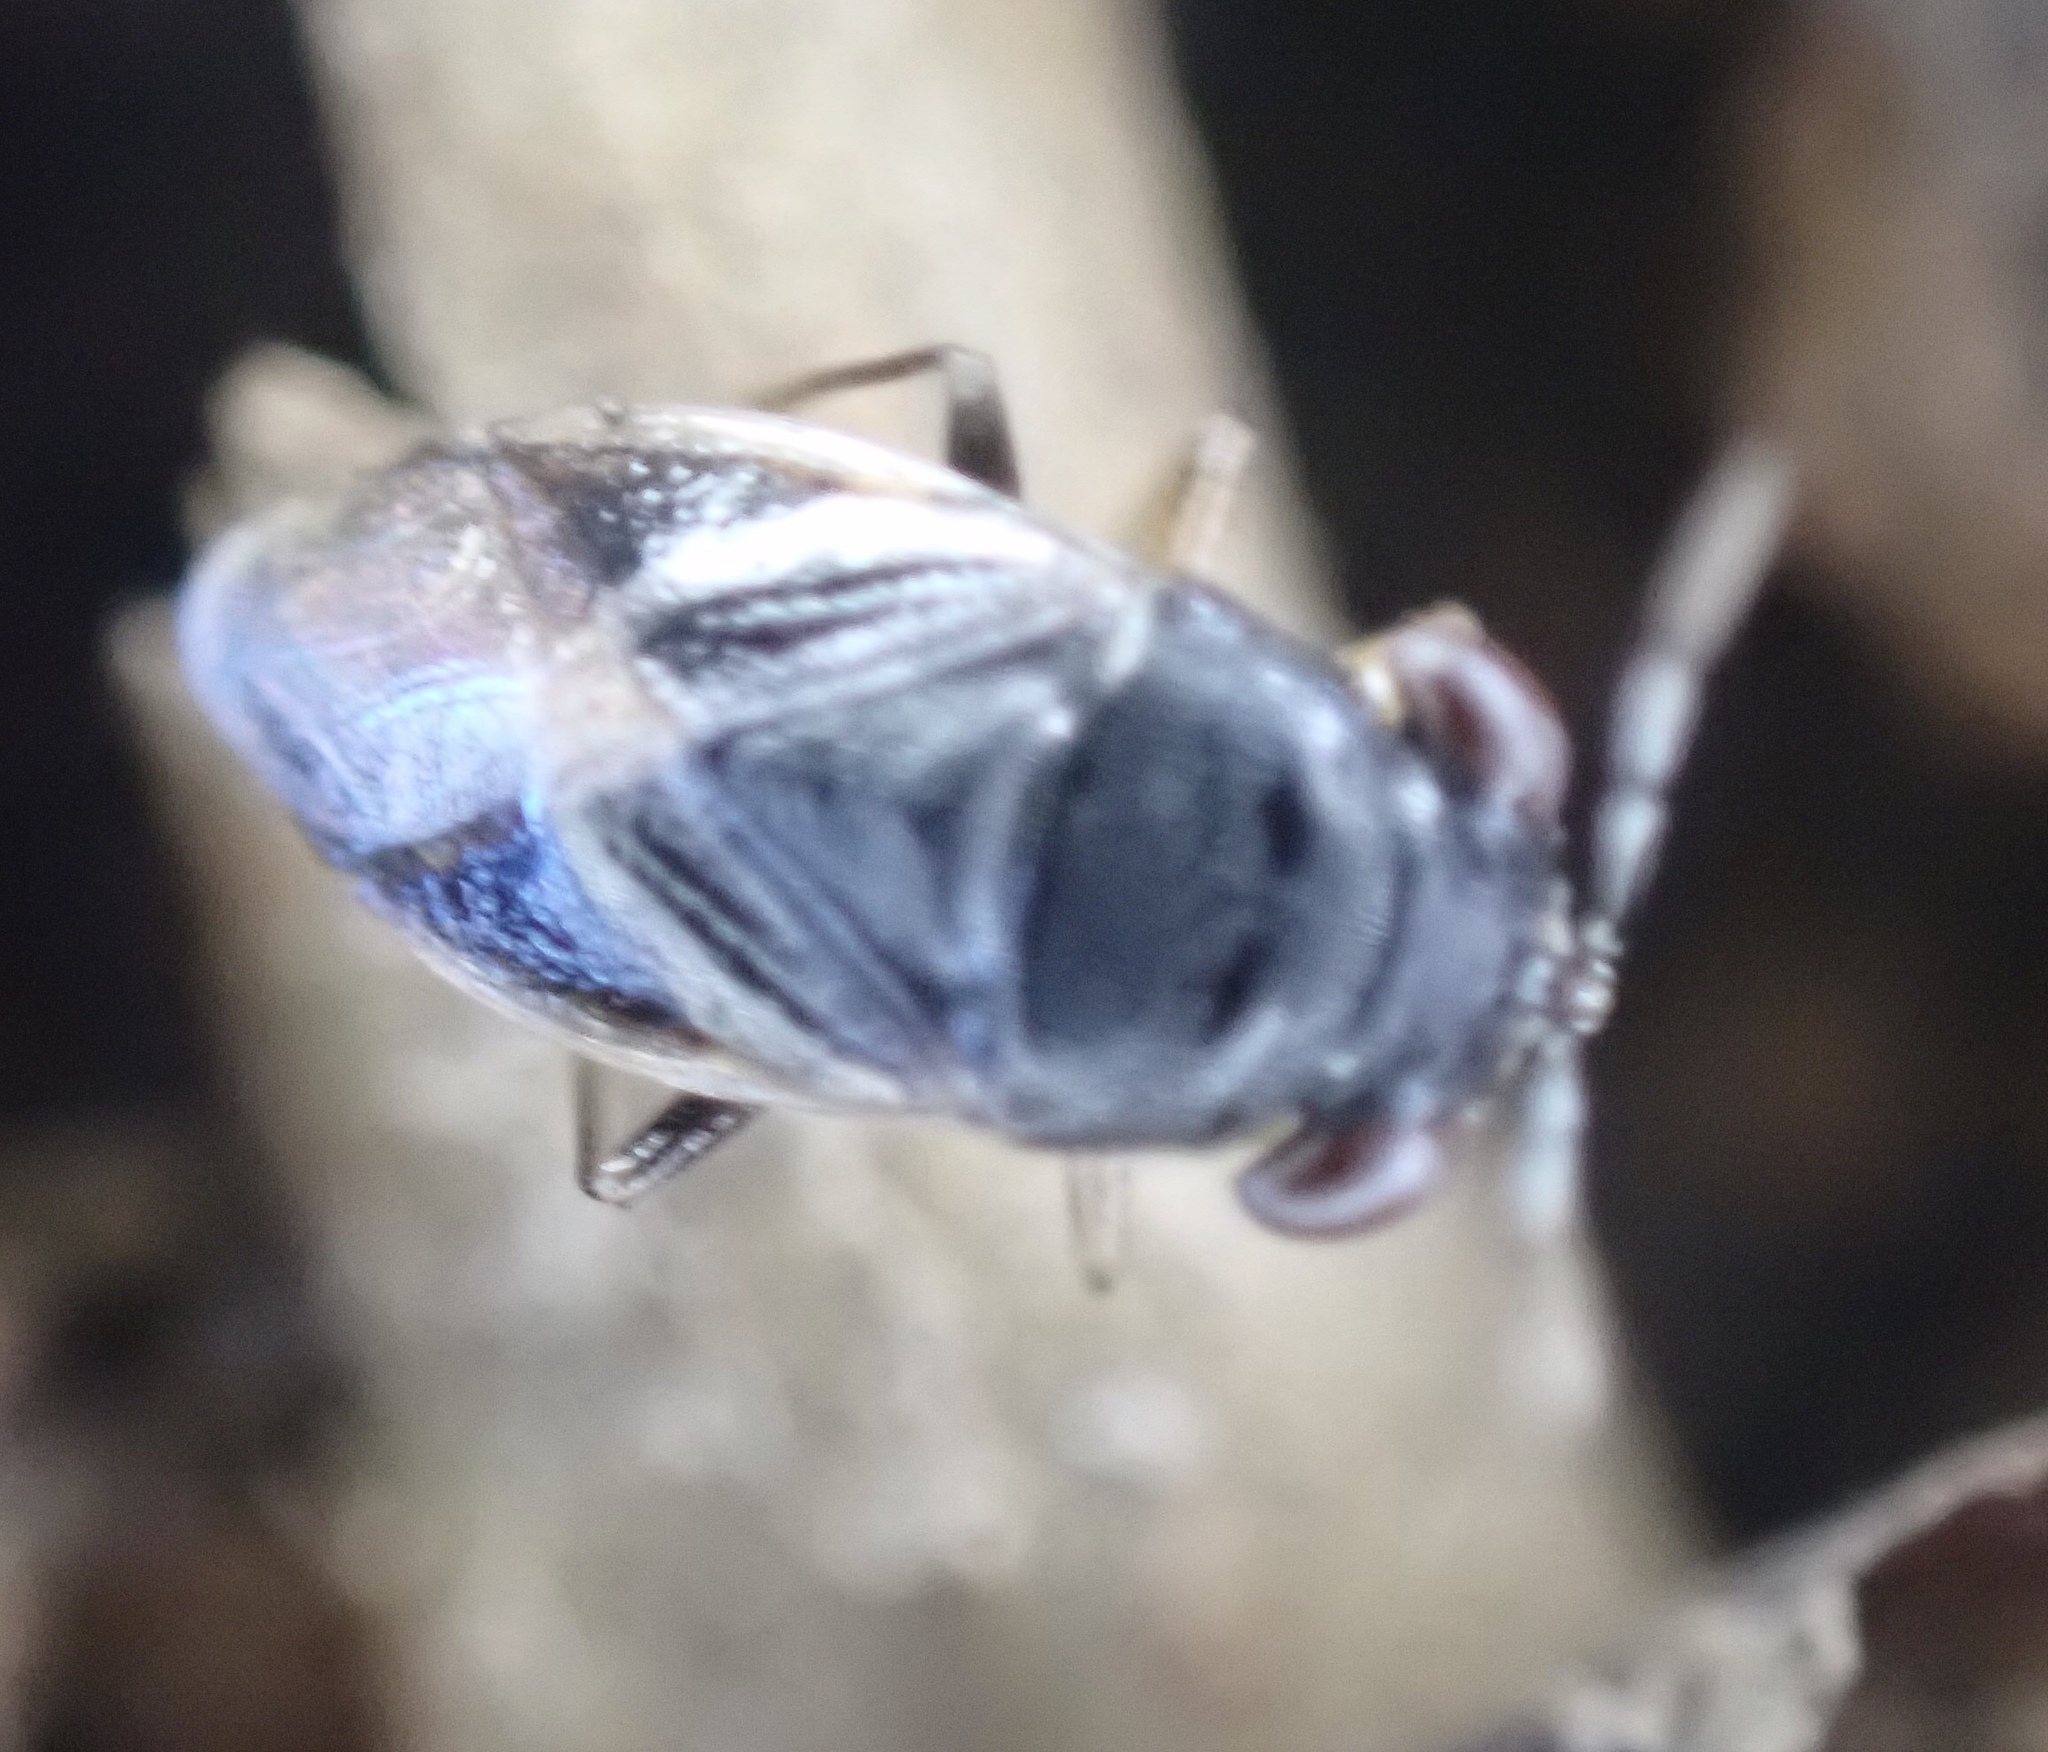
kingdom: Animalia
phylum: Arthropoda
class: Insecta
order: Hemiptera
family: Geocoridae
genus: Geocoris
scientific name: Geocoris uliginosus
